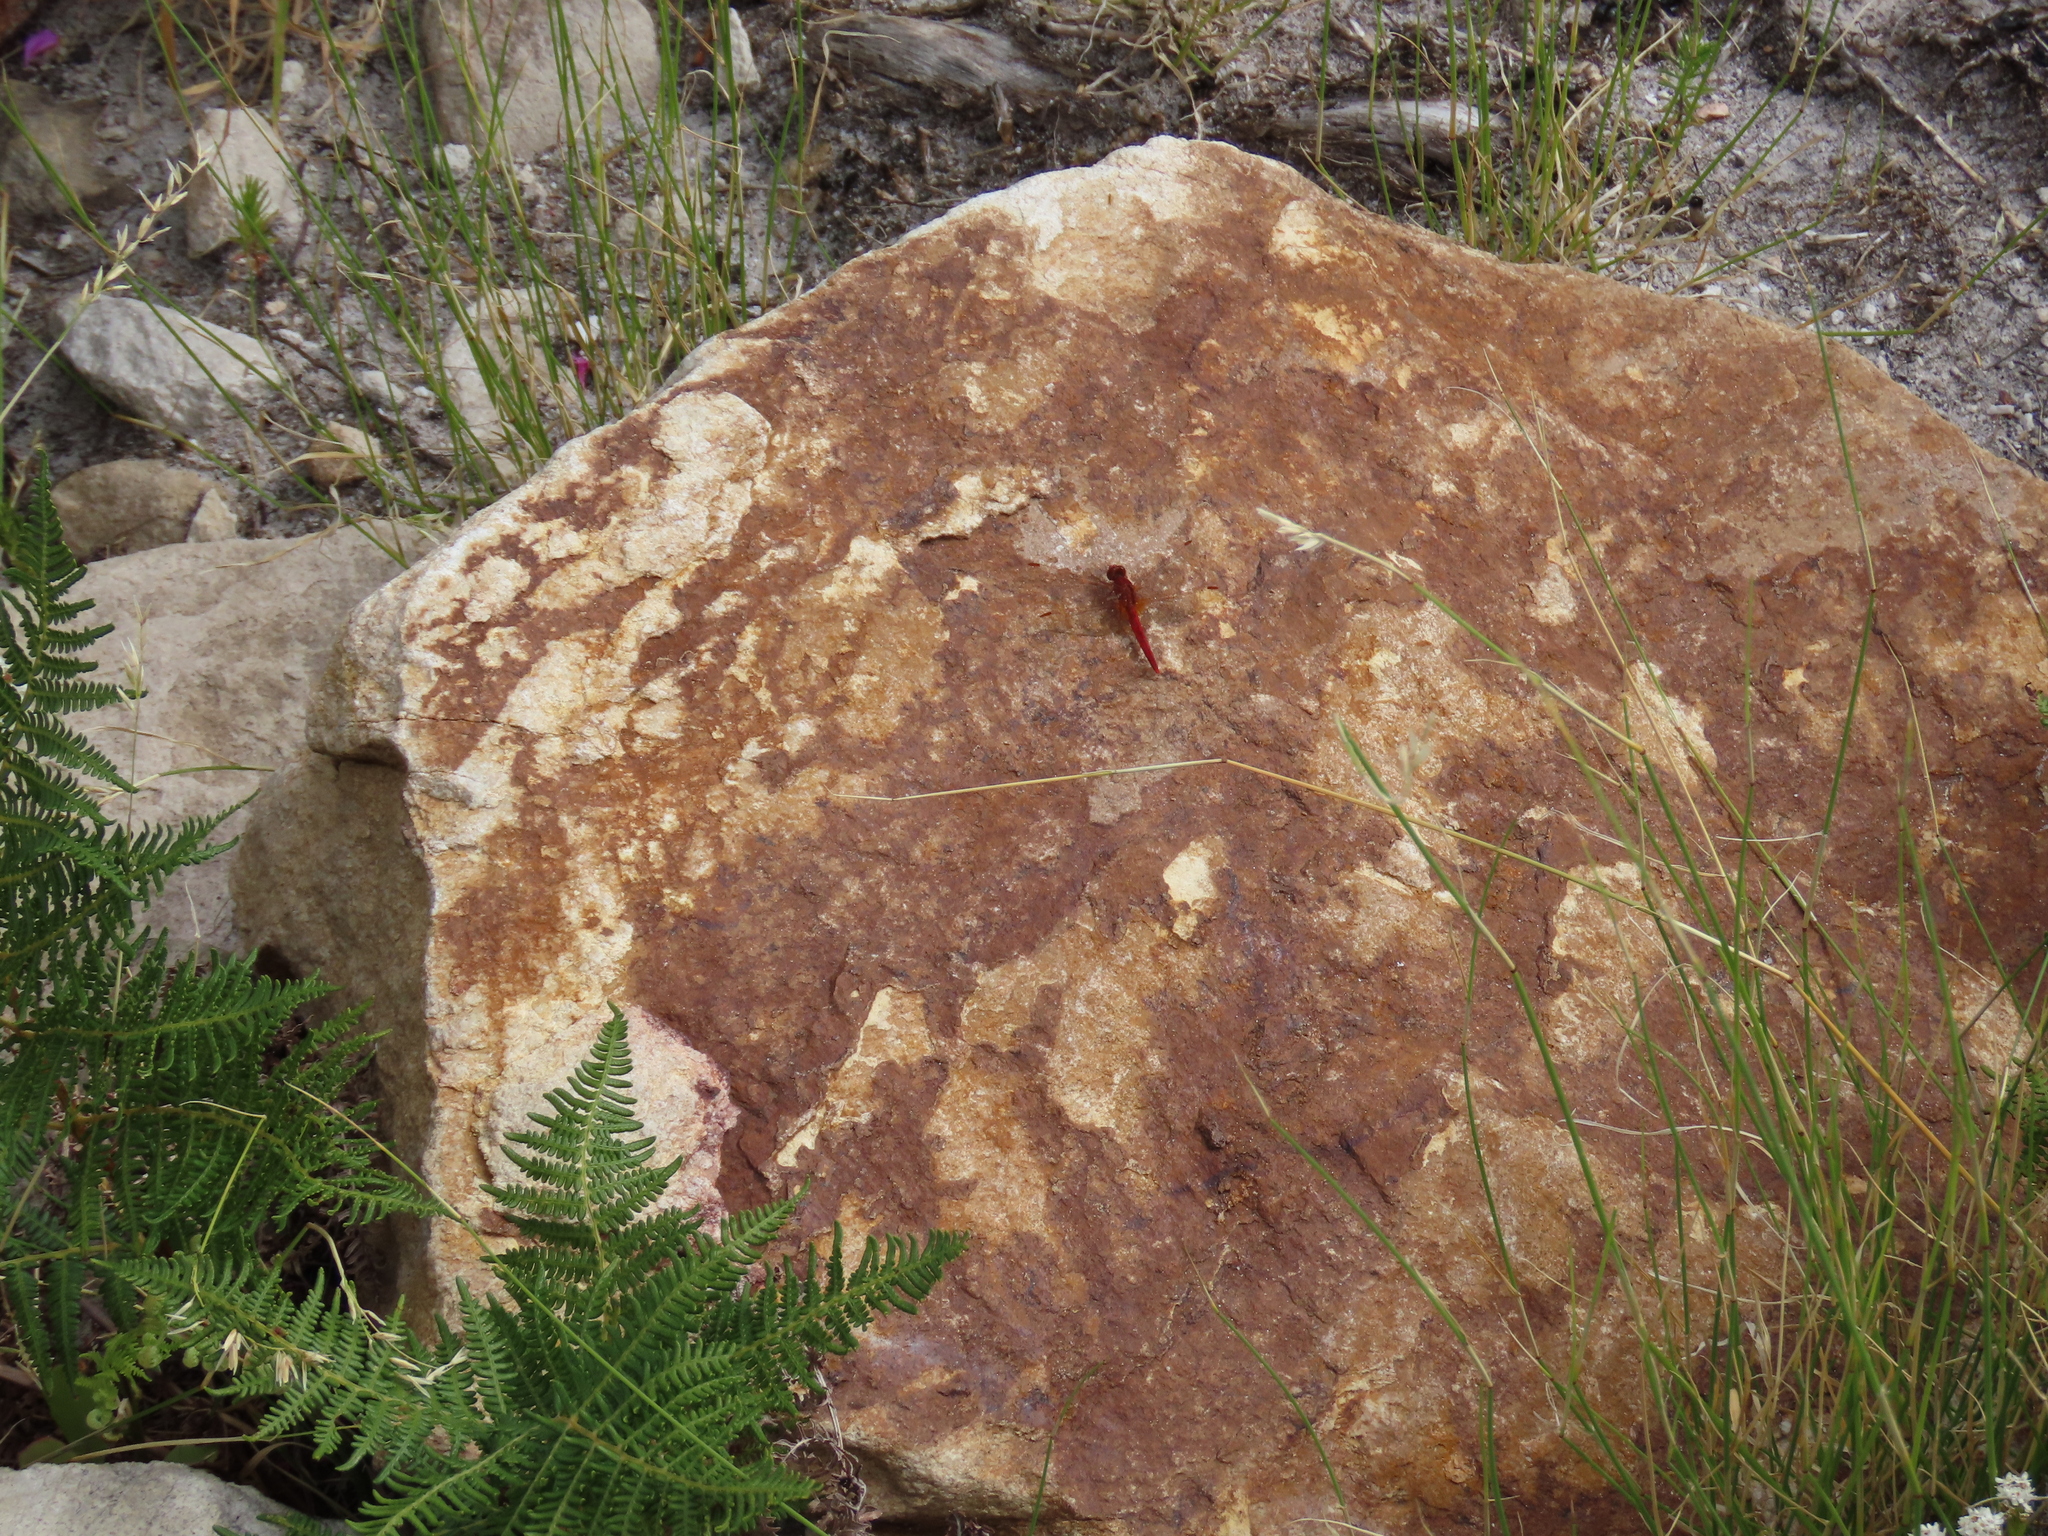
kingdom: Animalia
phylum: Arthropoda
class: Insecta
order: Odonata
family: Libellulidae
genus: Crocothemis
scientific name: Crocothemis sanguinolenta
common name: Little scarlet
